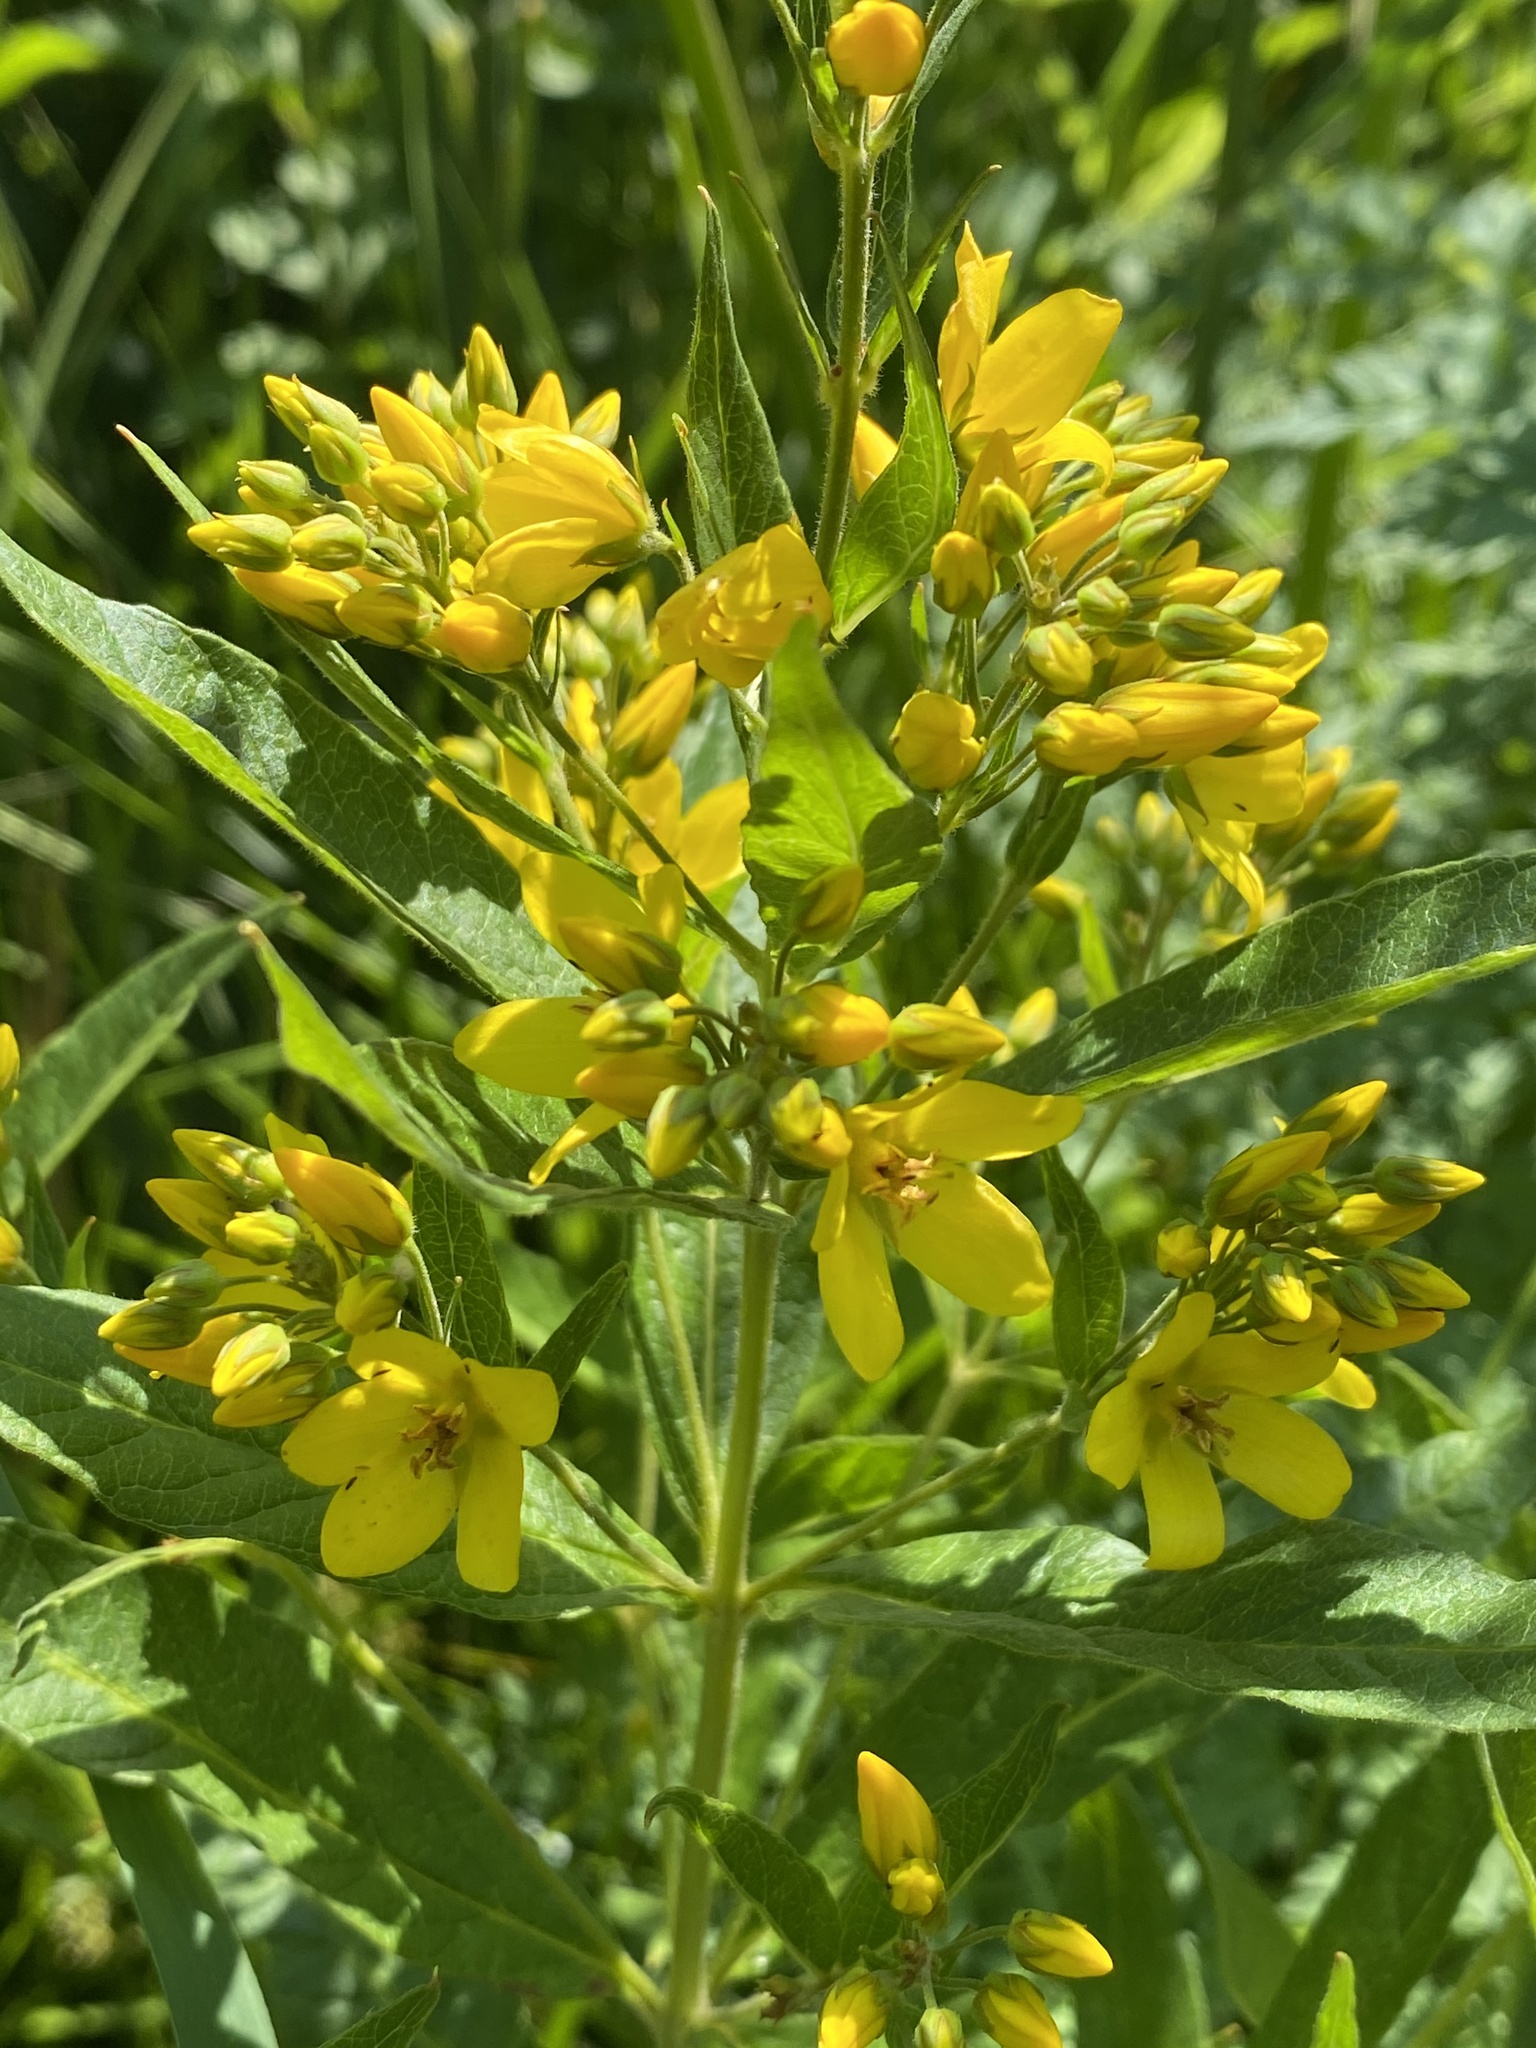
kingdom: Plantae
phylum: Tracheophyta
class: Magnoliopsida
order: Ericales
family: Primulaceae
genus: Lysimachia
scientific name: Lysimachia vulgaris
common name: Yellow loosestrife
